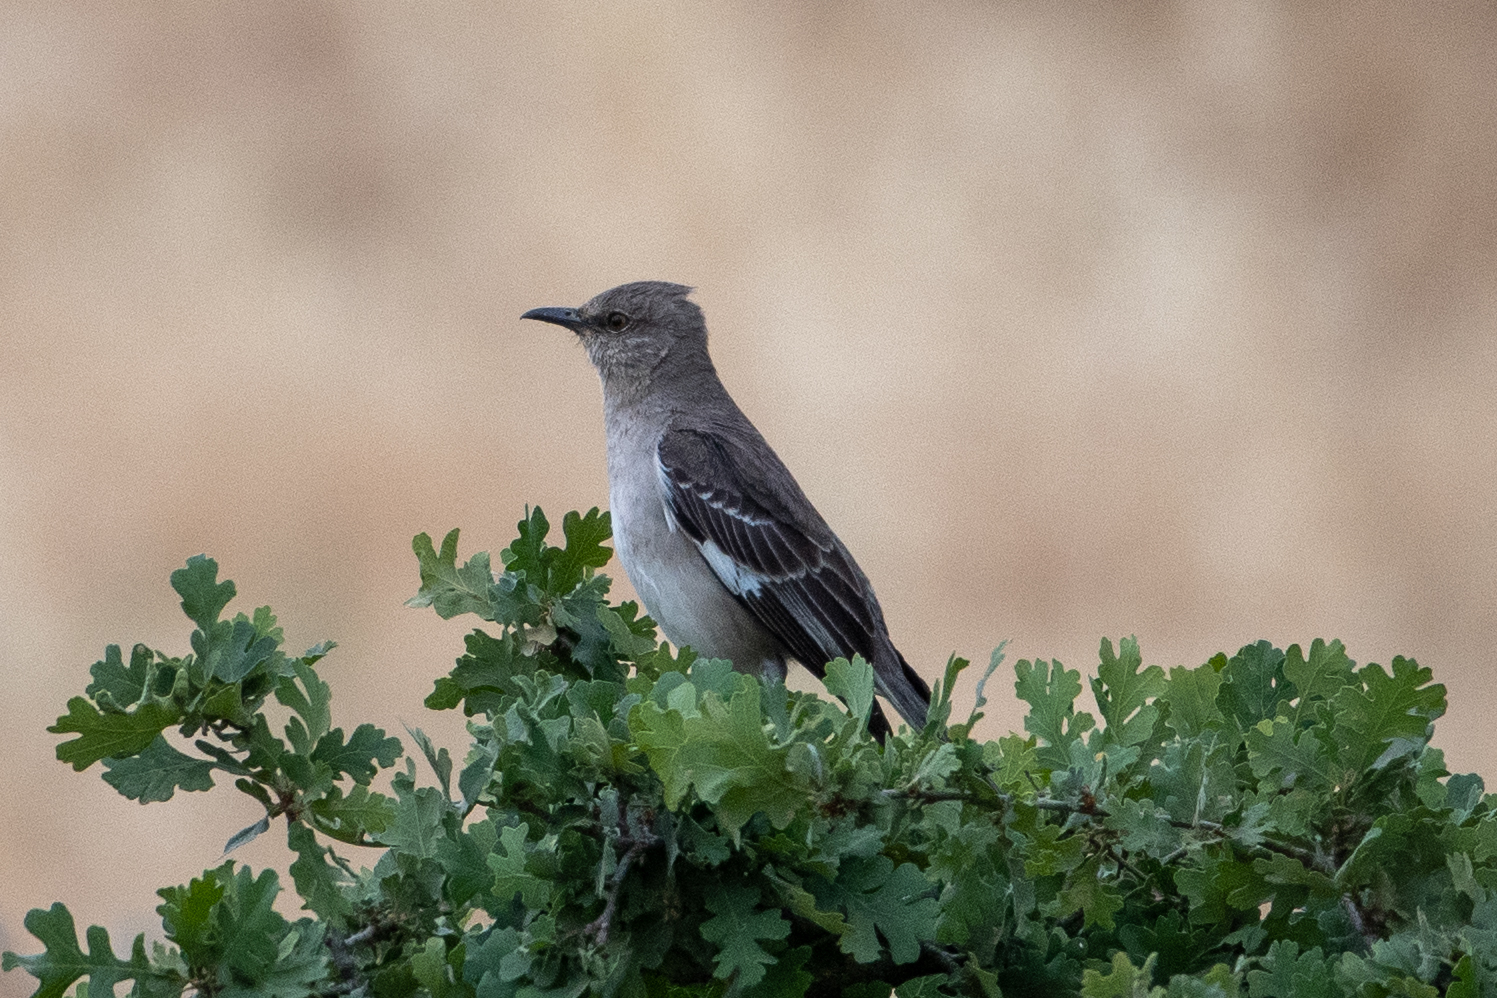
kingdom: Animalia
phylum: Chordata
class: Aves
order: Passeriformes
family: Mimidae
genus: Mimus
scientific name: Mimus polyglottos
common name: Northern mockingbird
